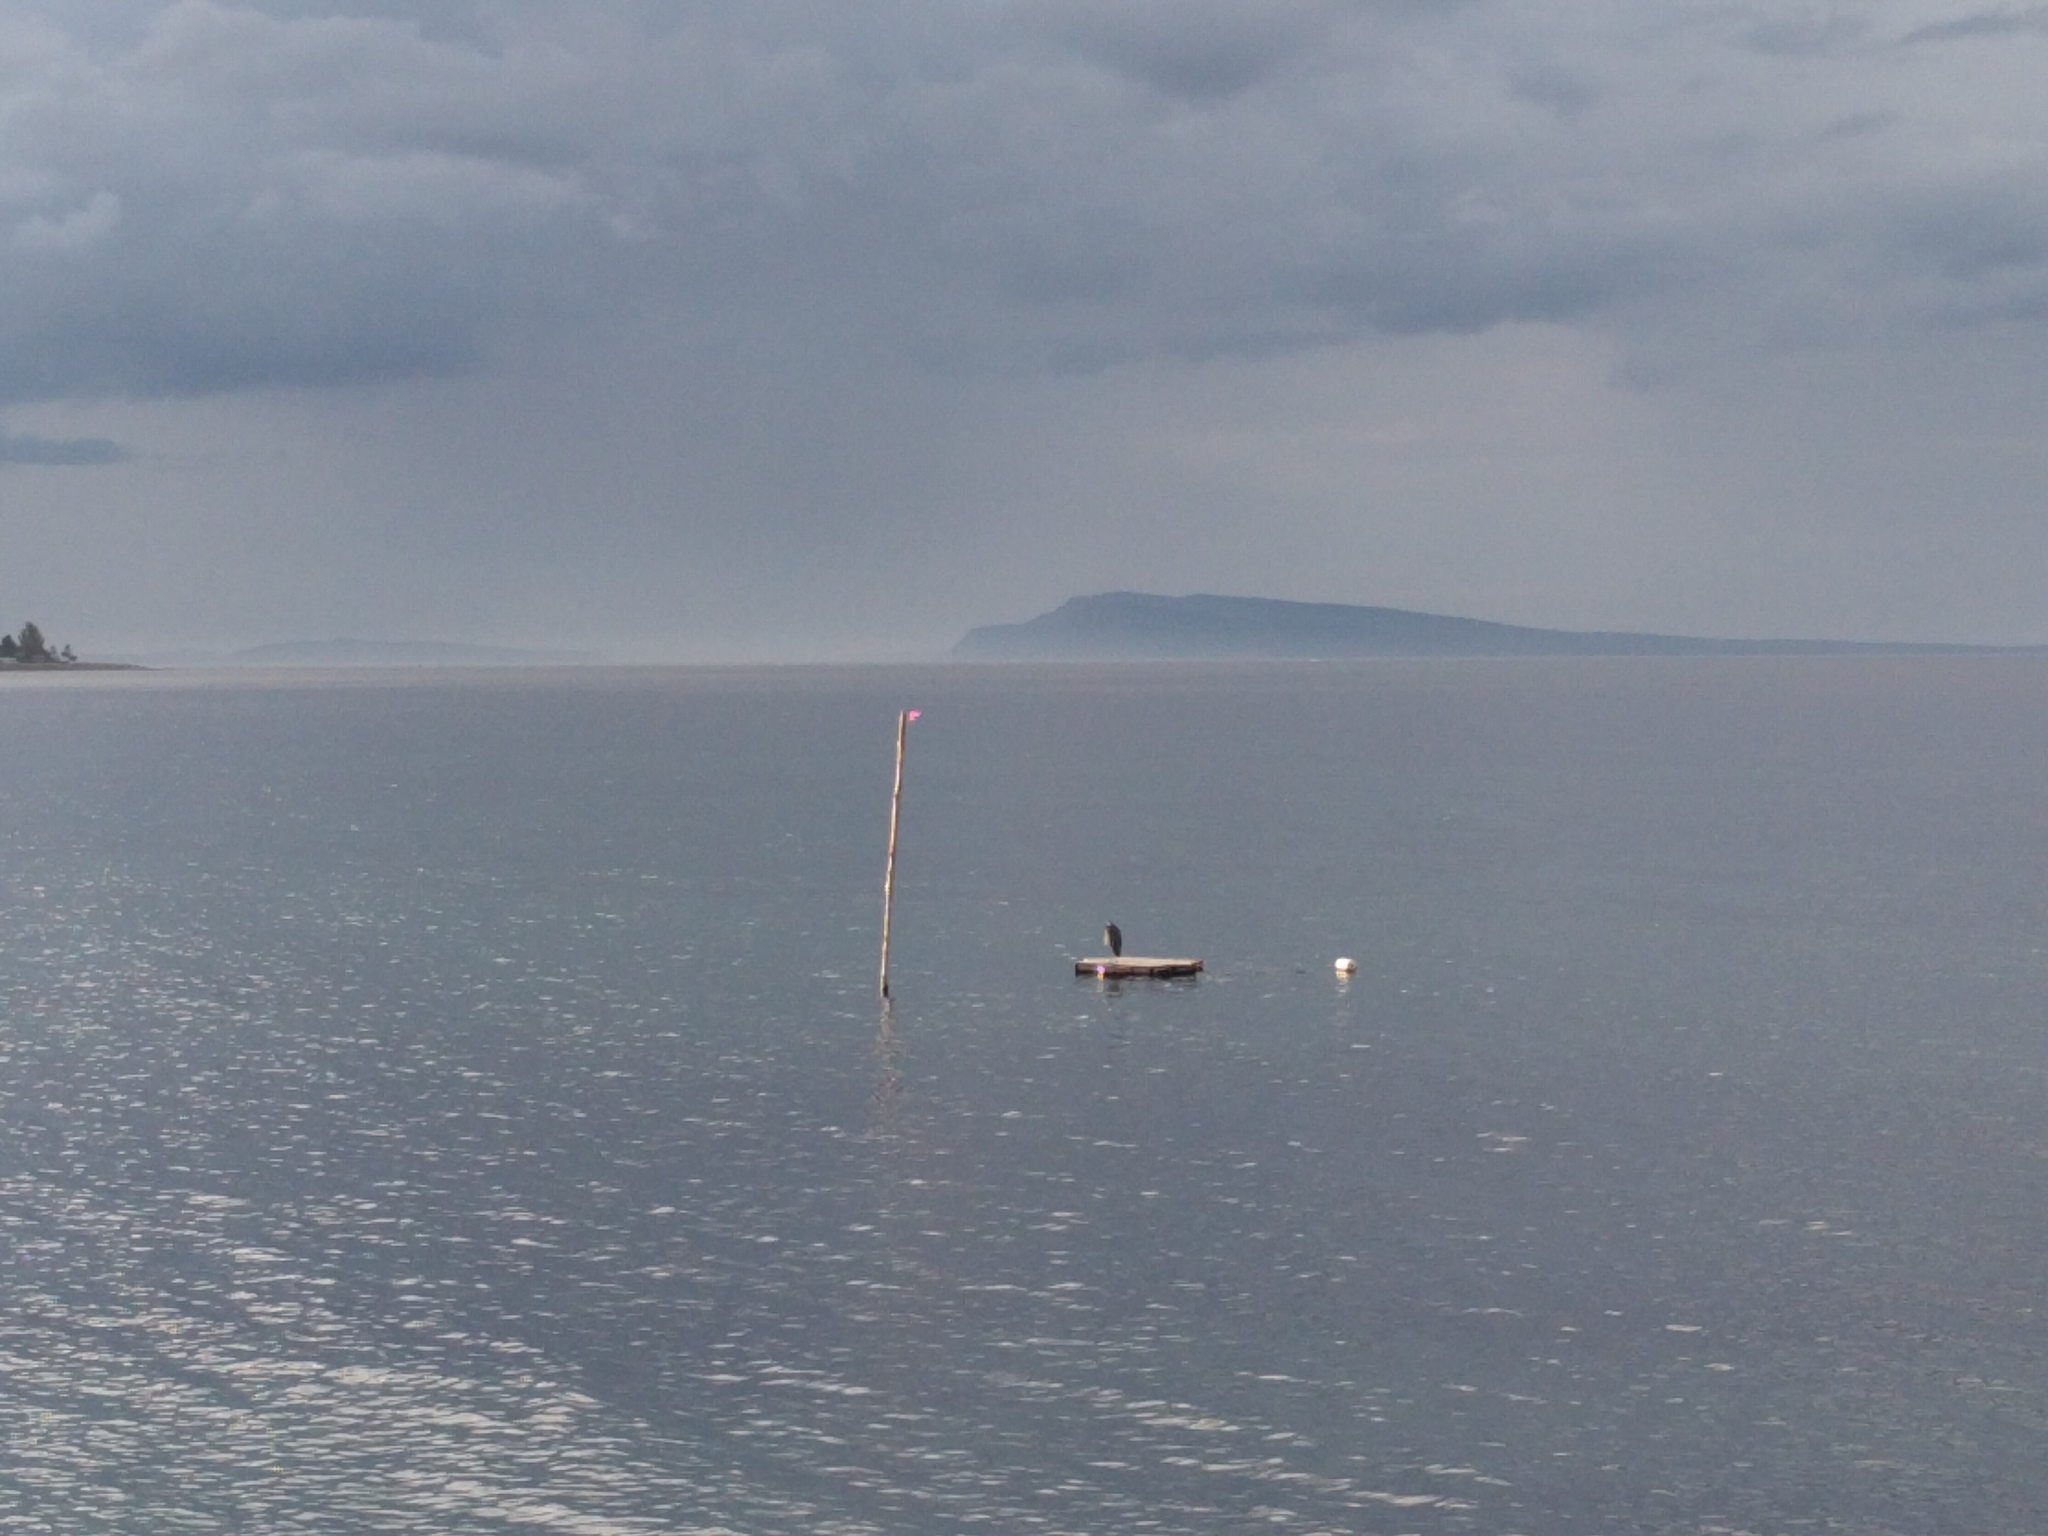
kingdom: Animalia
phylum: Chordata
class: Aves
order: Pelecaniformes
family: Ardeidae
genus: Ardea
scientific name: Ardea herodias
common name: Great blue heron
